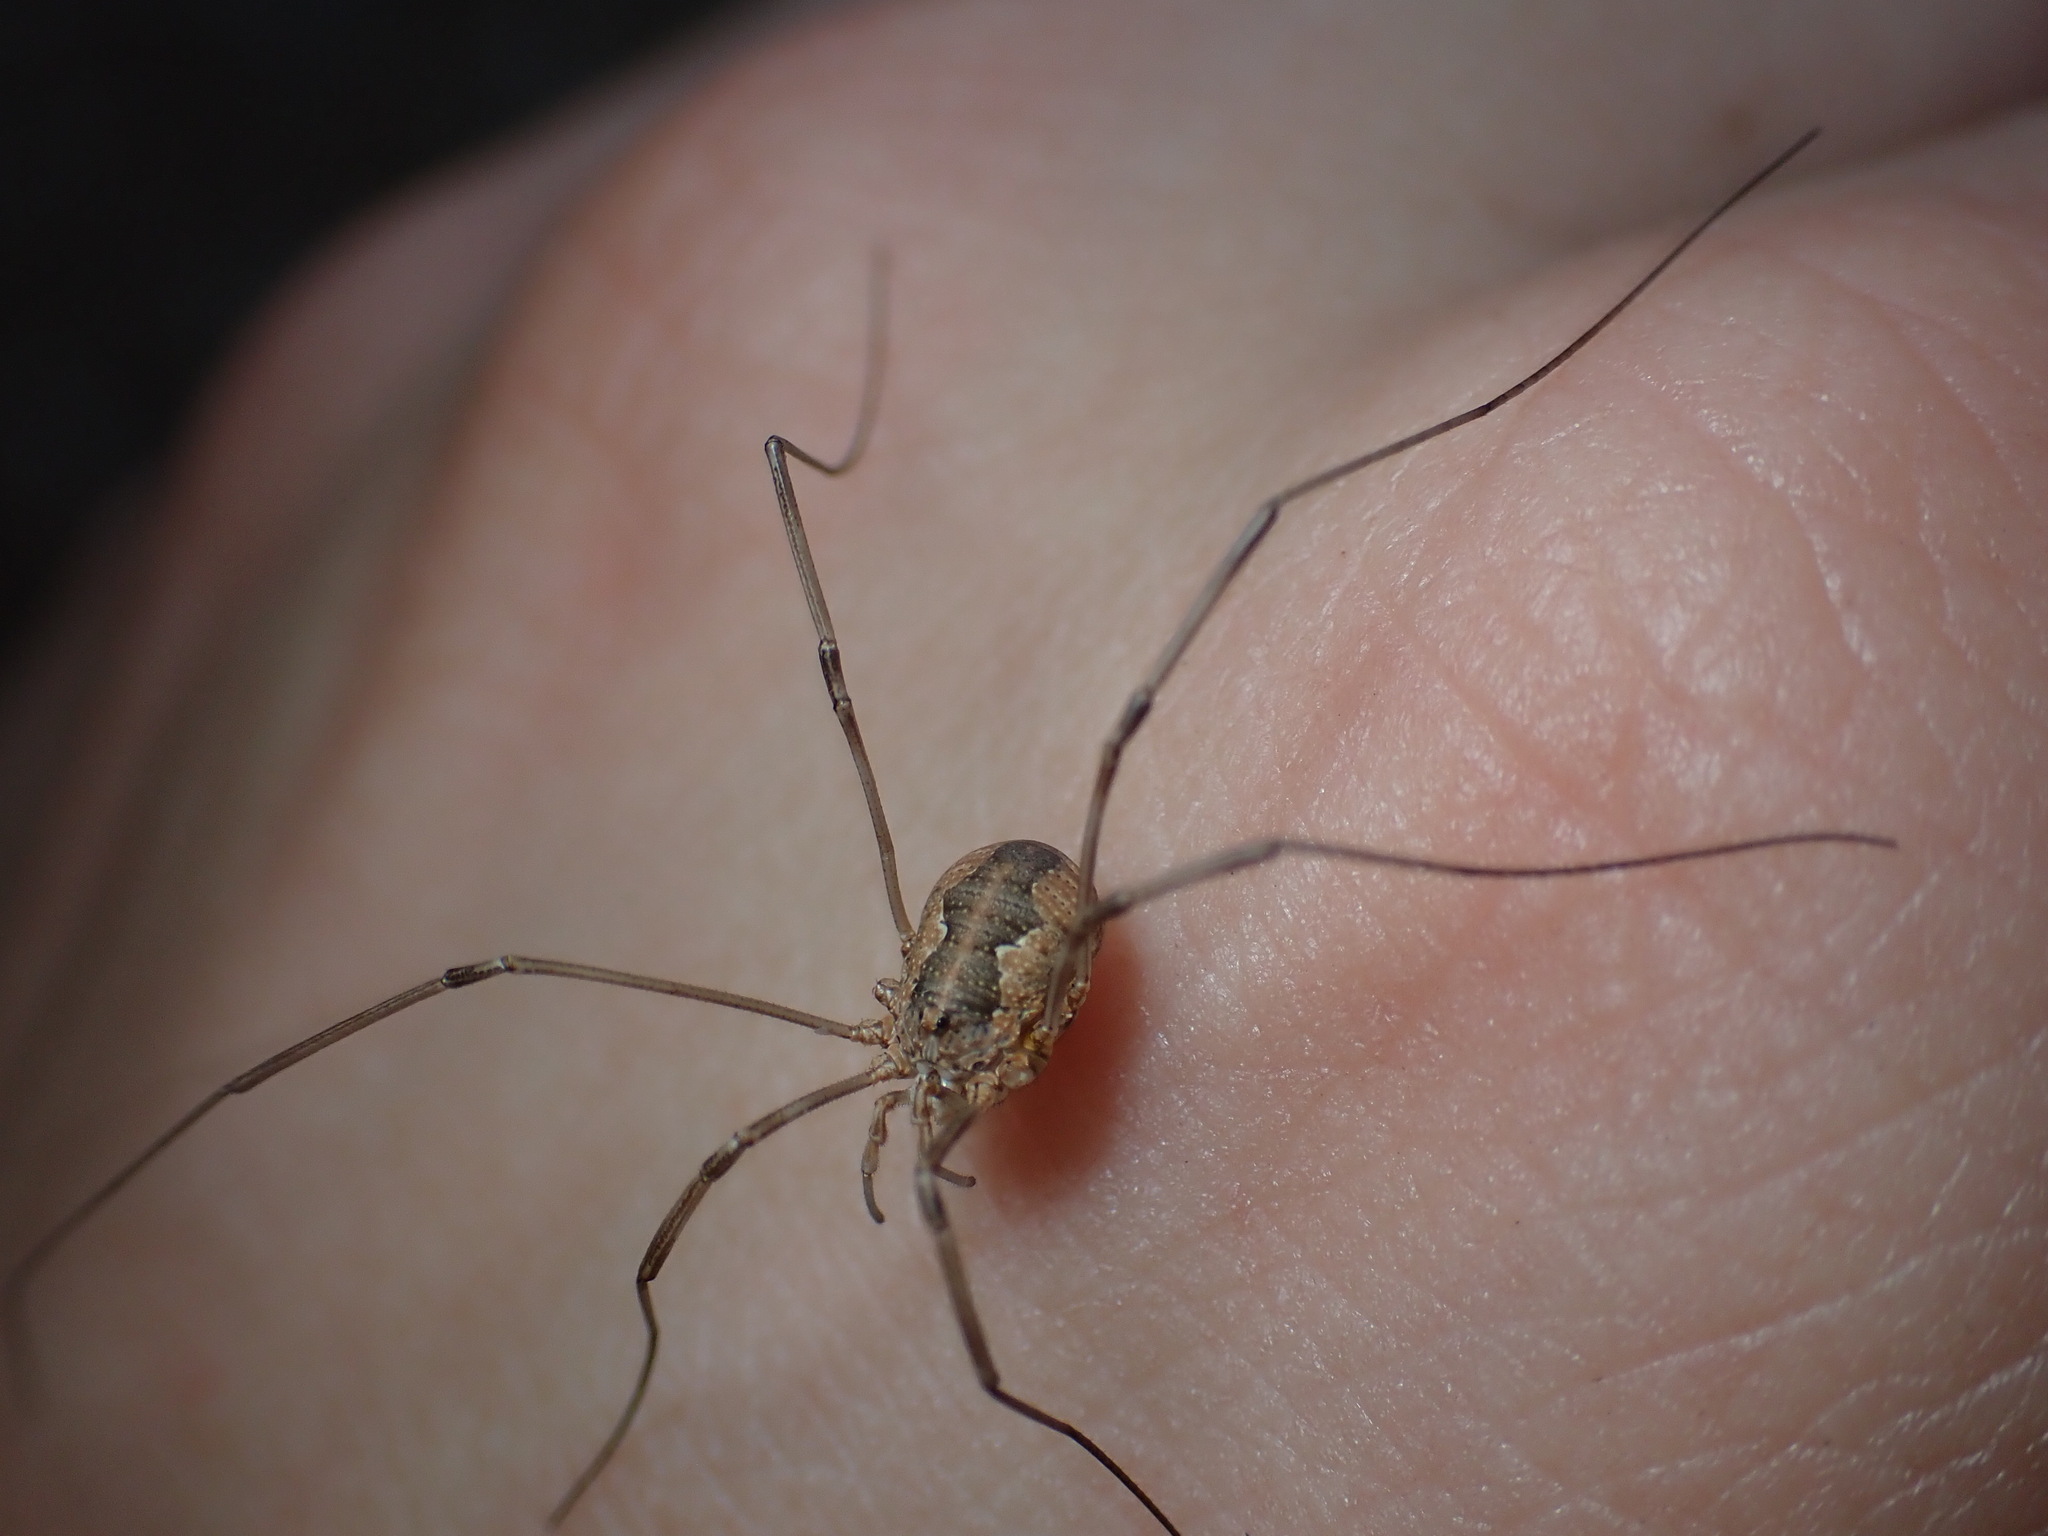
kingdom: Animalia
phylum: Arthropoda
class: Arachnida
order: Opiliones
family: Phalangiidae
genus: Phalangium
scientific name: Phalangium opilio
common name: Daddy longleg
